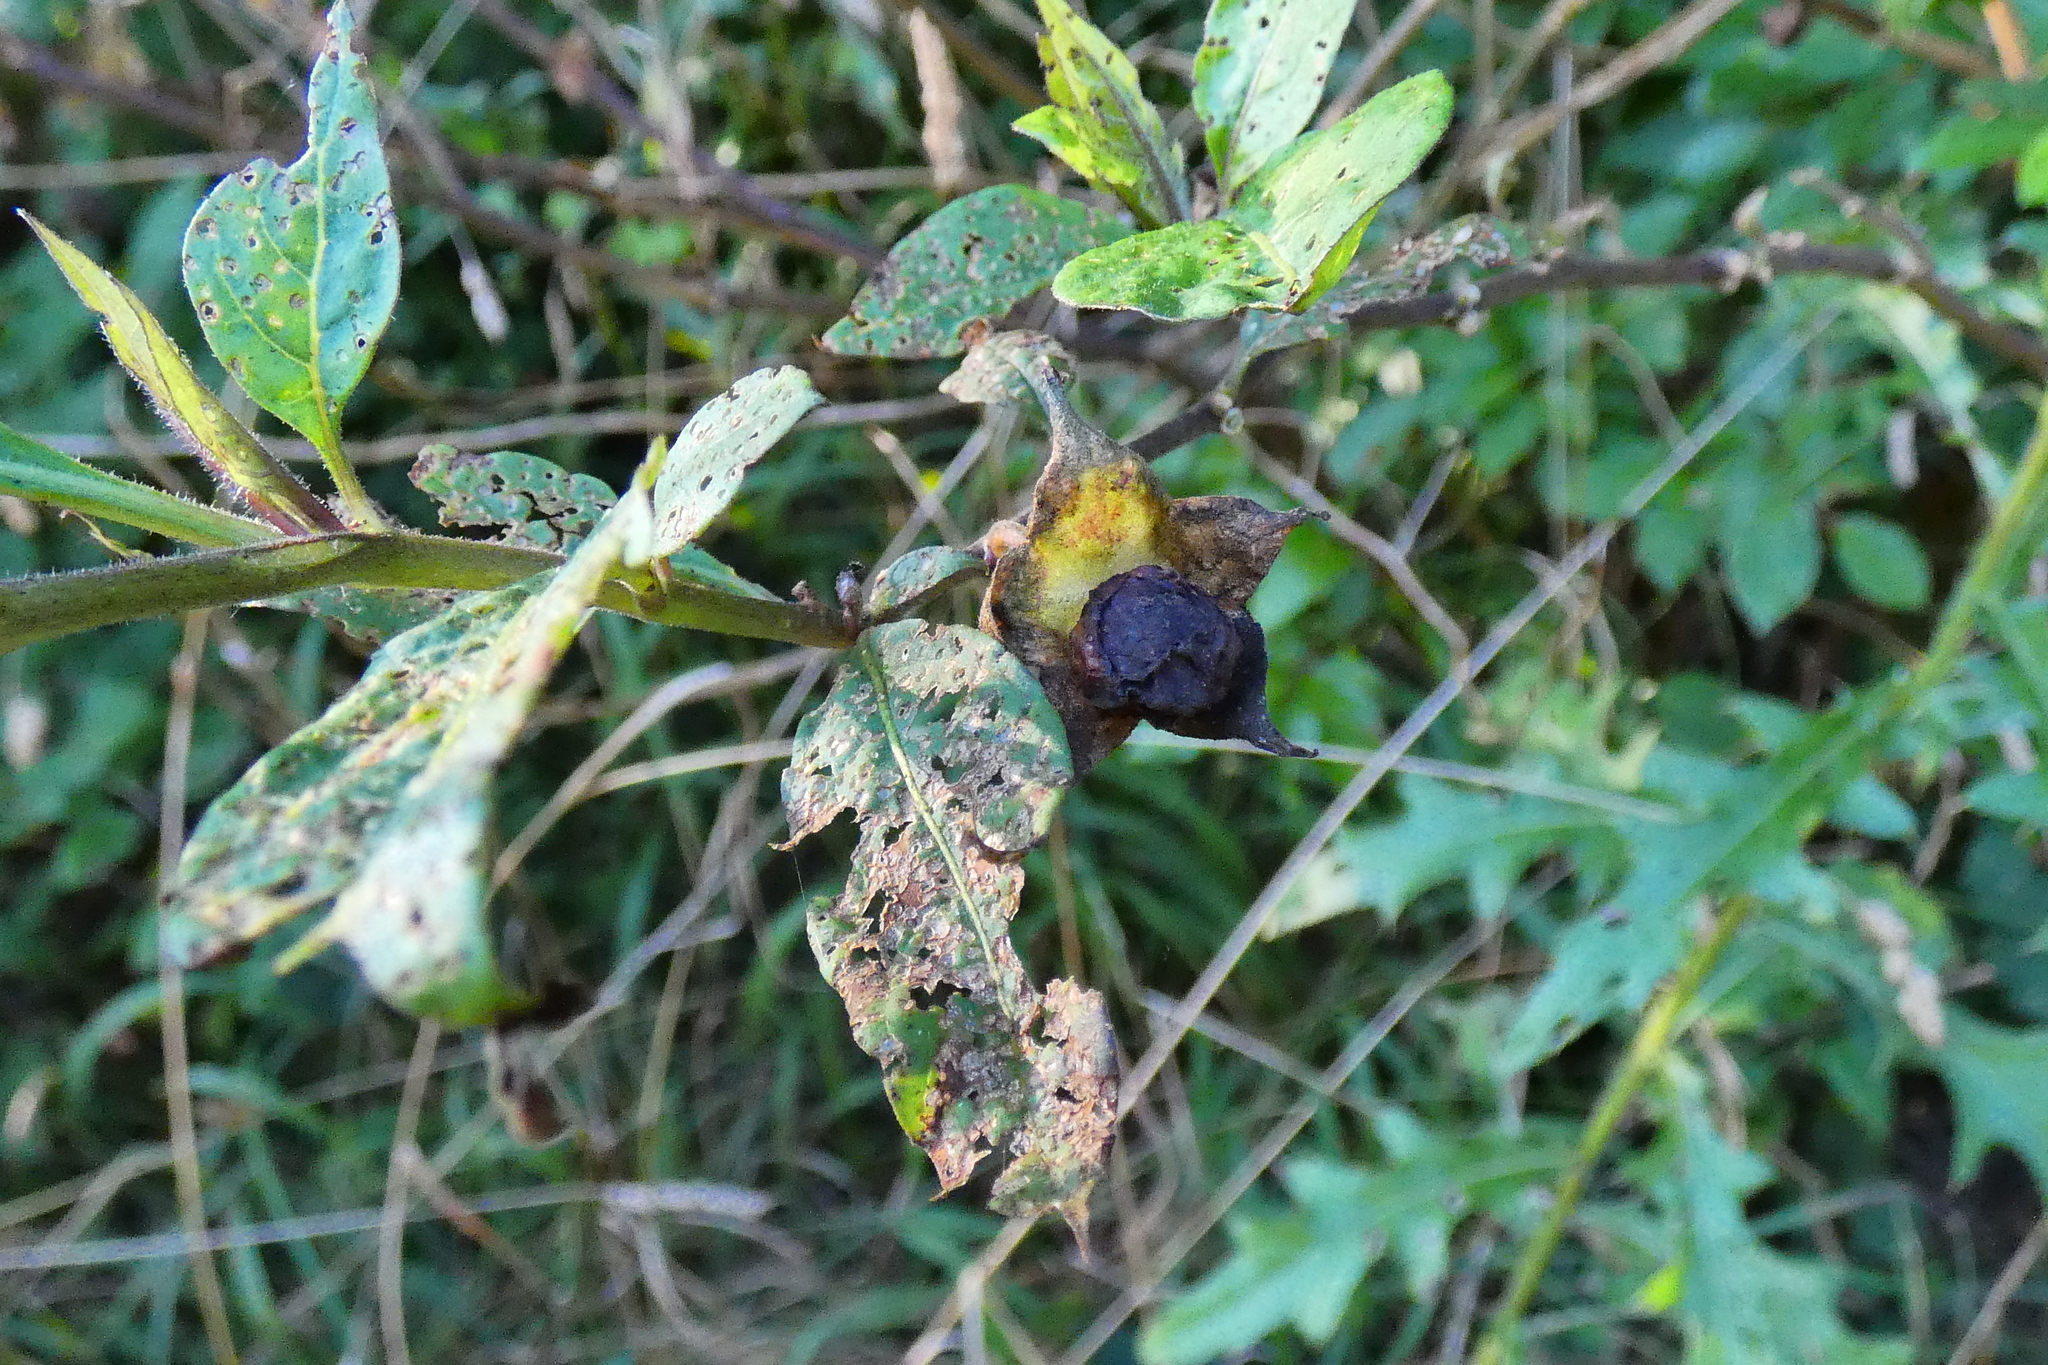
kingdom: Plantae
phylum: Tracheophyta
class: Magnoliopsida
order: Solanales
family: Solanaceae
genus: Atropa
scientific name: Atropa belladonna
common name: Deadly nightshade
